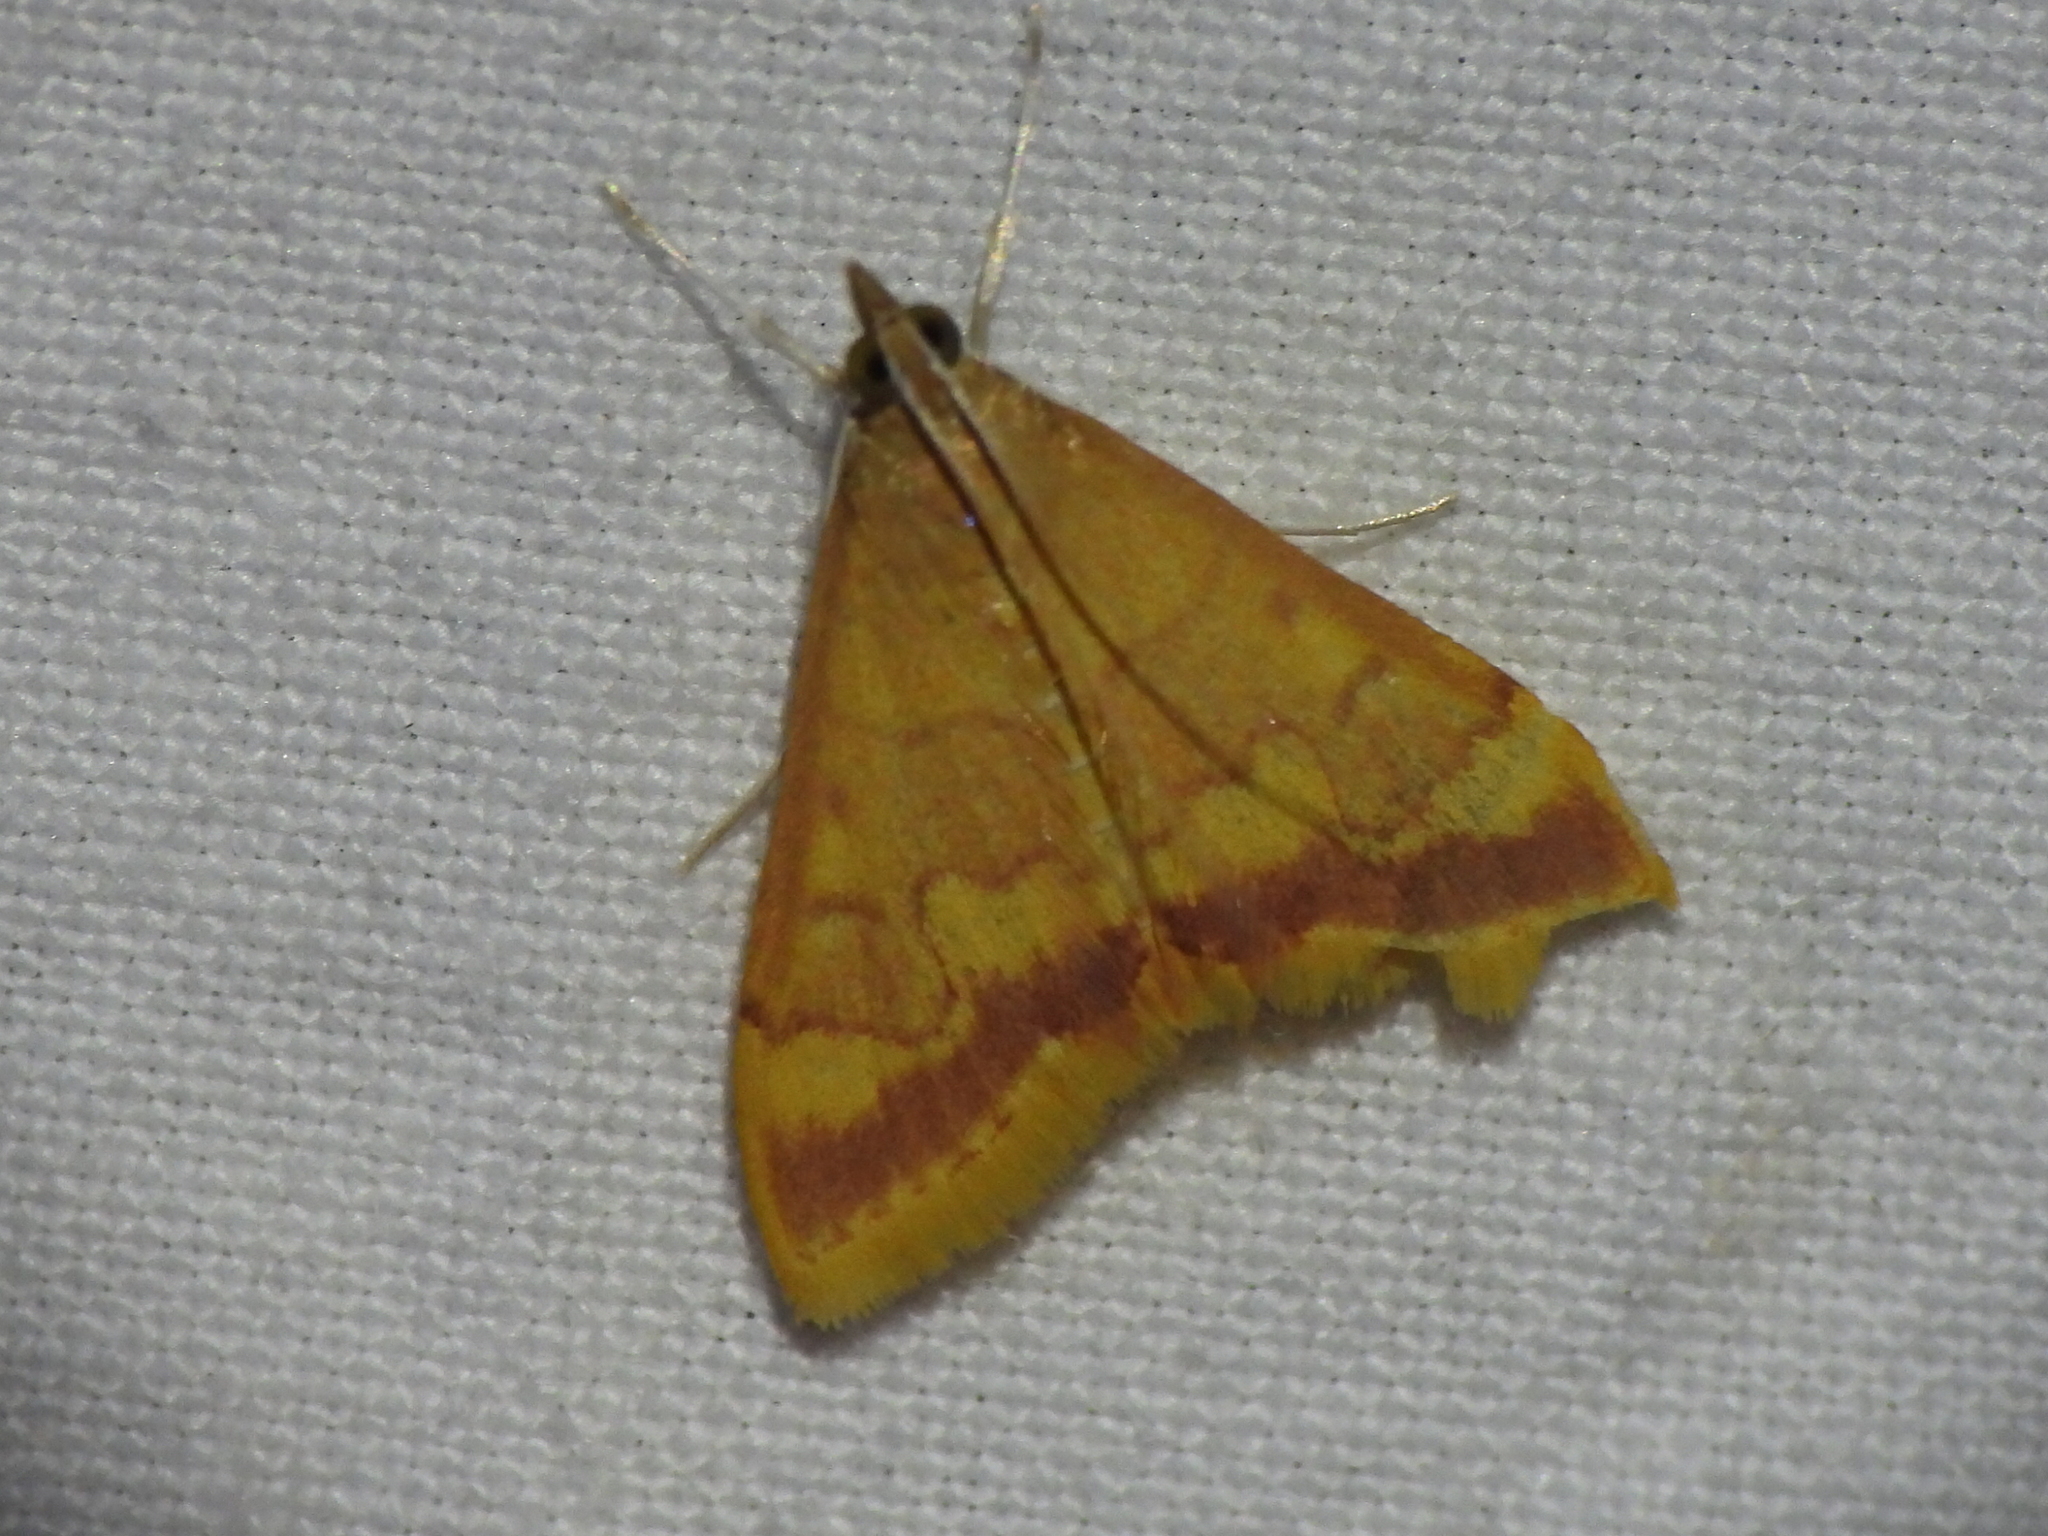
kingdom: Animalia
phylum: Arthropoda
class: Insecta
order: Lepidoptera
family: Crambidae
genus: Pyrausta
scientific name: Pyrausta pseudonythesalis
